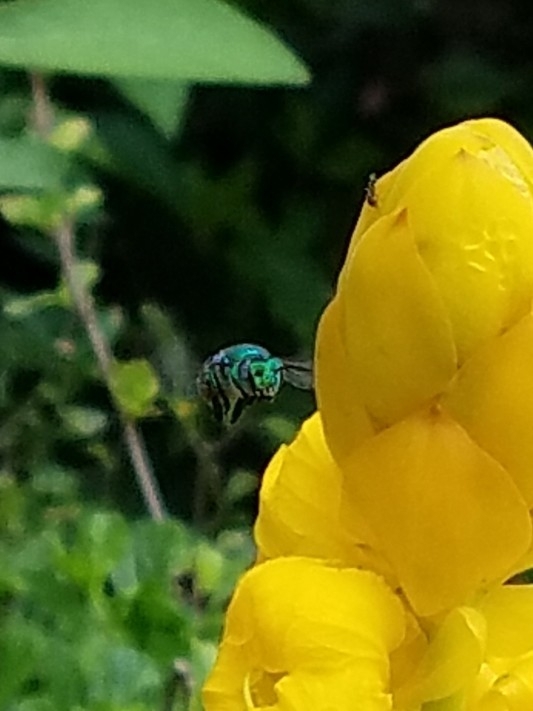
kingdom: Animalia
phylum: Arthropoda
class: Insecta
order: Hymenoptera
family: Apidae
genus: Euglossa
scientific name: Euglossa dilemma
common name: Green orchid bee
